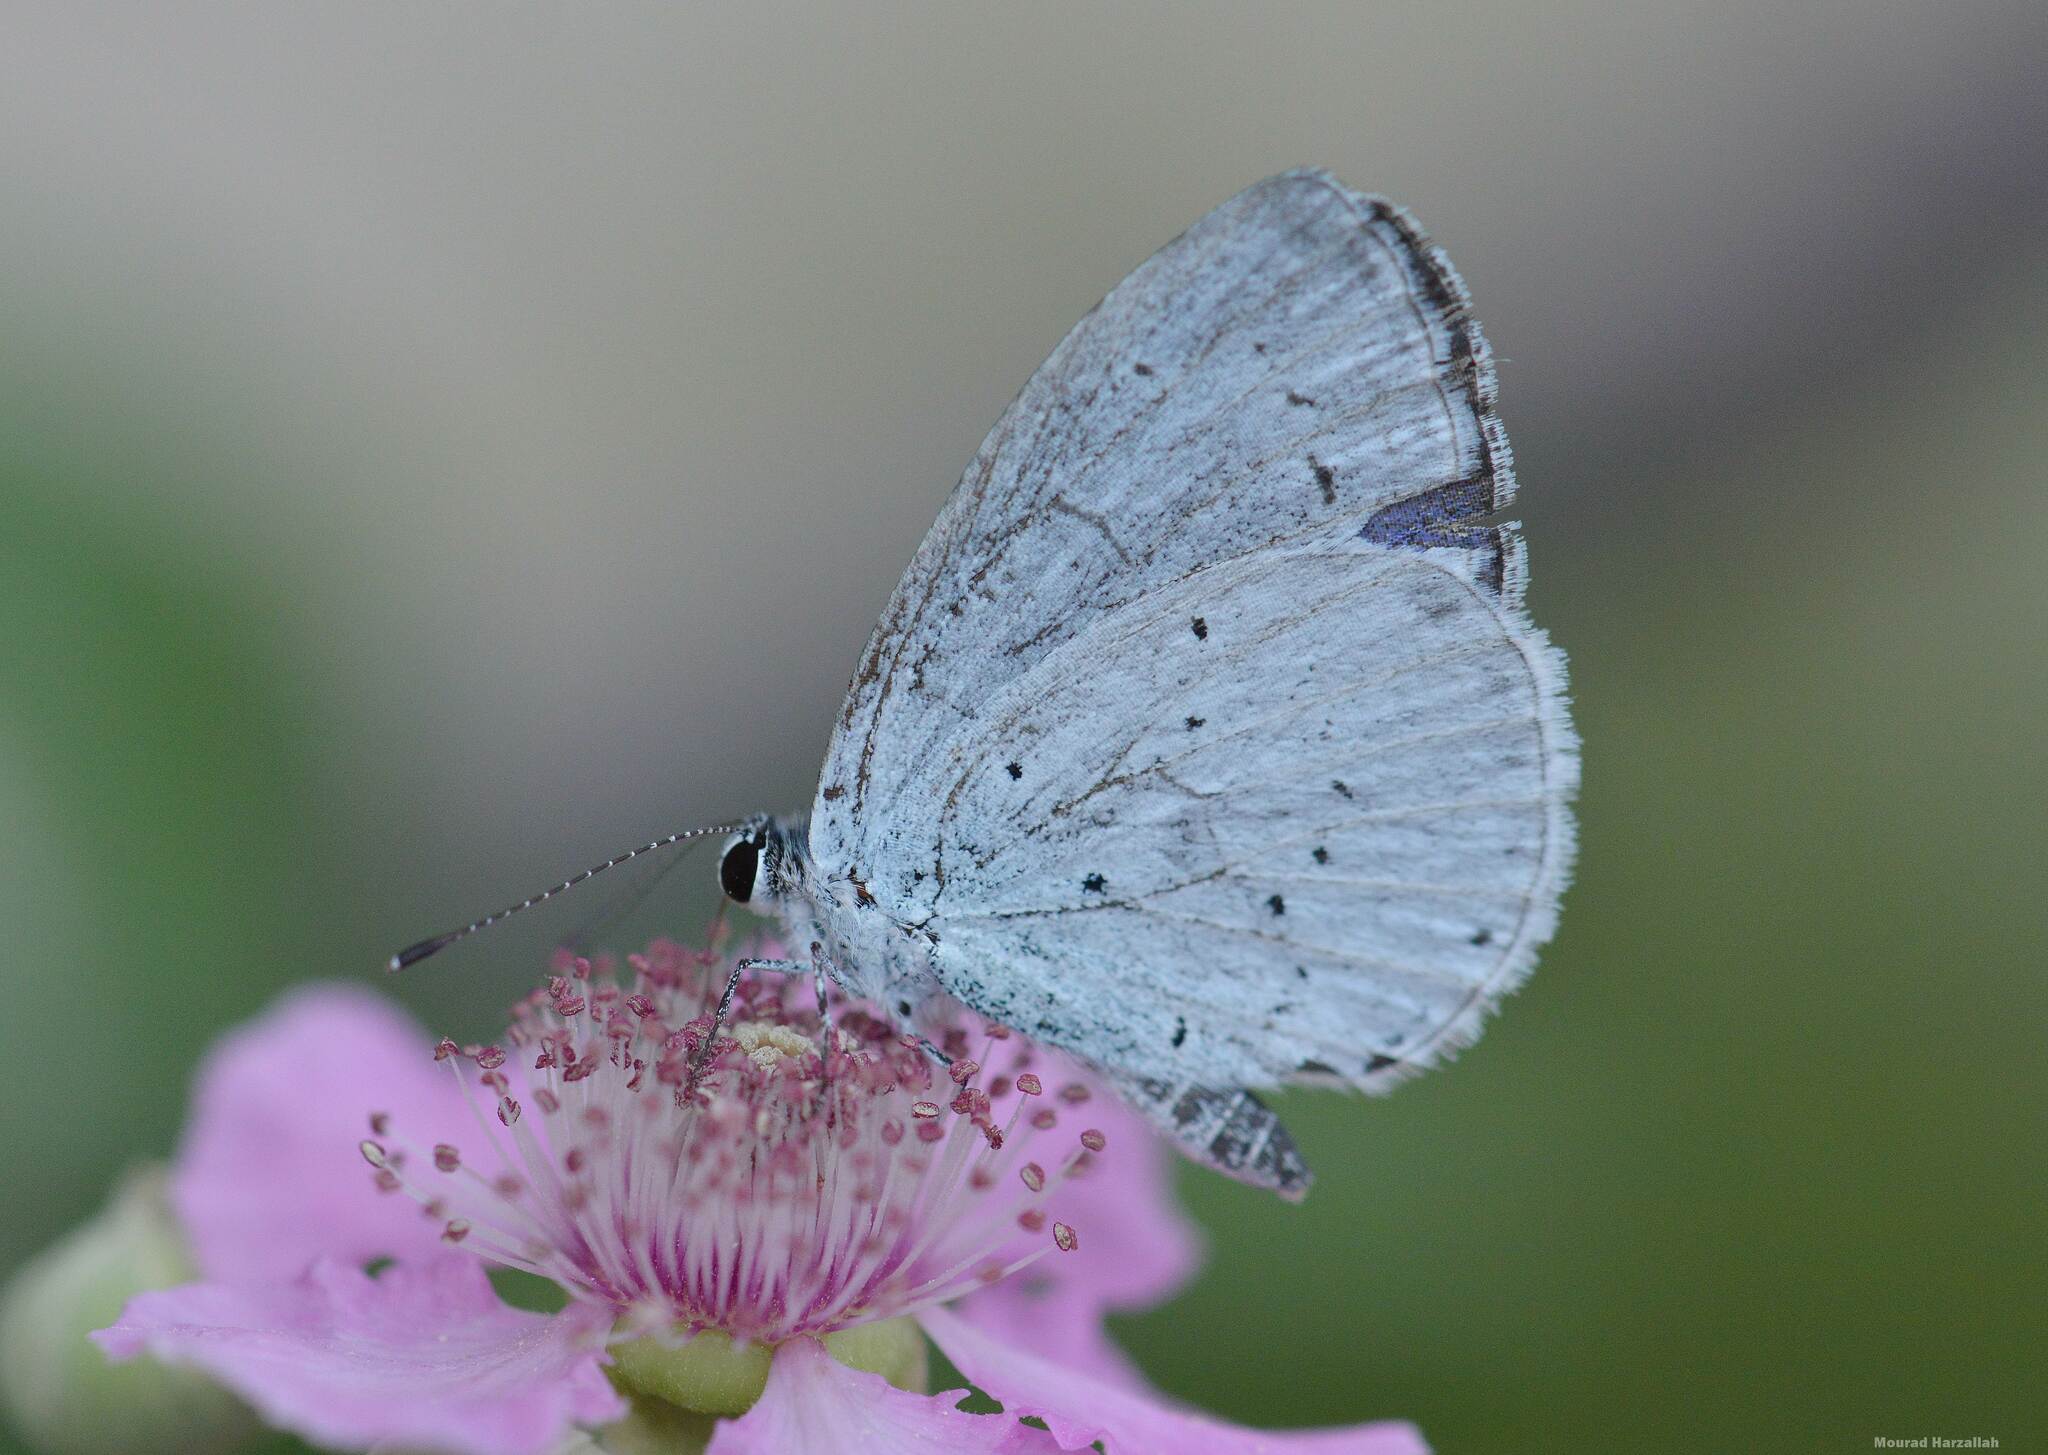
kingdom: Animalia
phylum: Arthropoda
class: Insecta
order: Lepidoptera
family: Lycaenidae
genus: Celastrina
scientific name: Celastrina argiolus
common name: Holly blue
